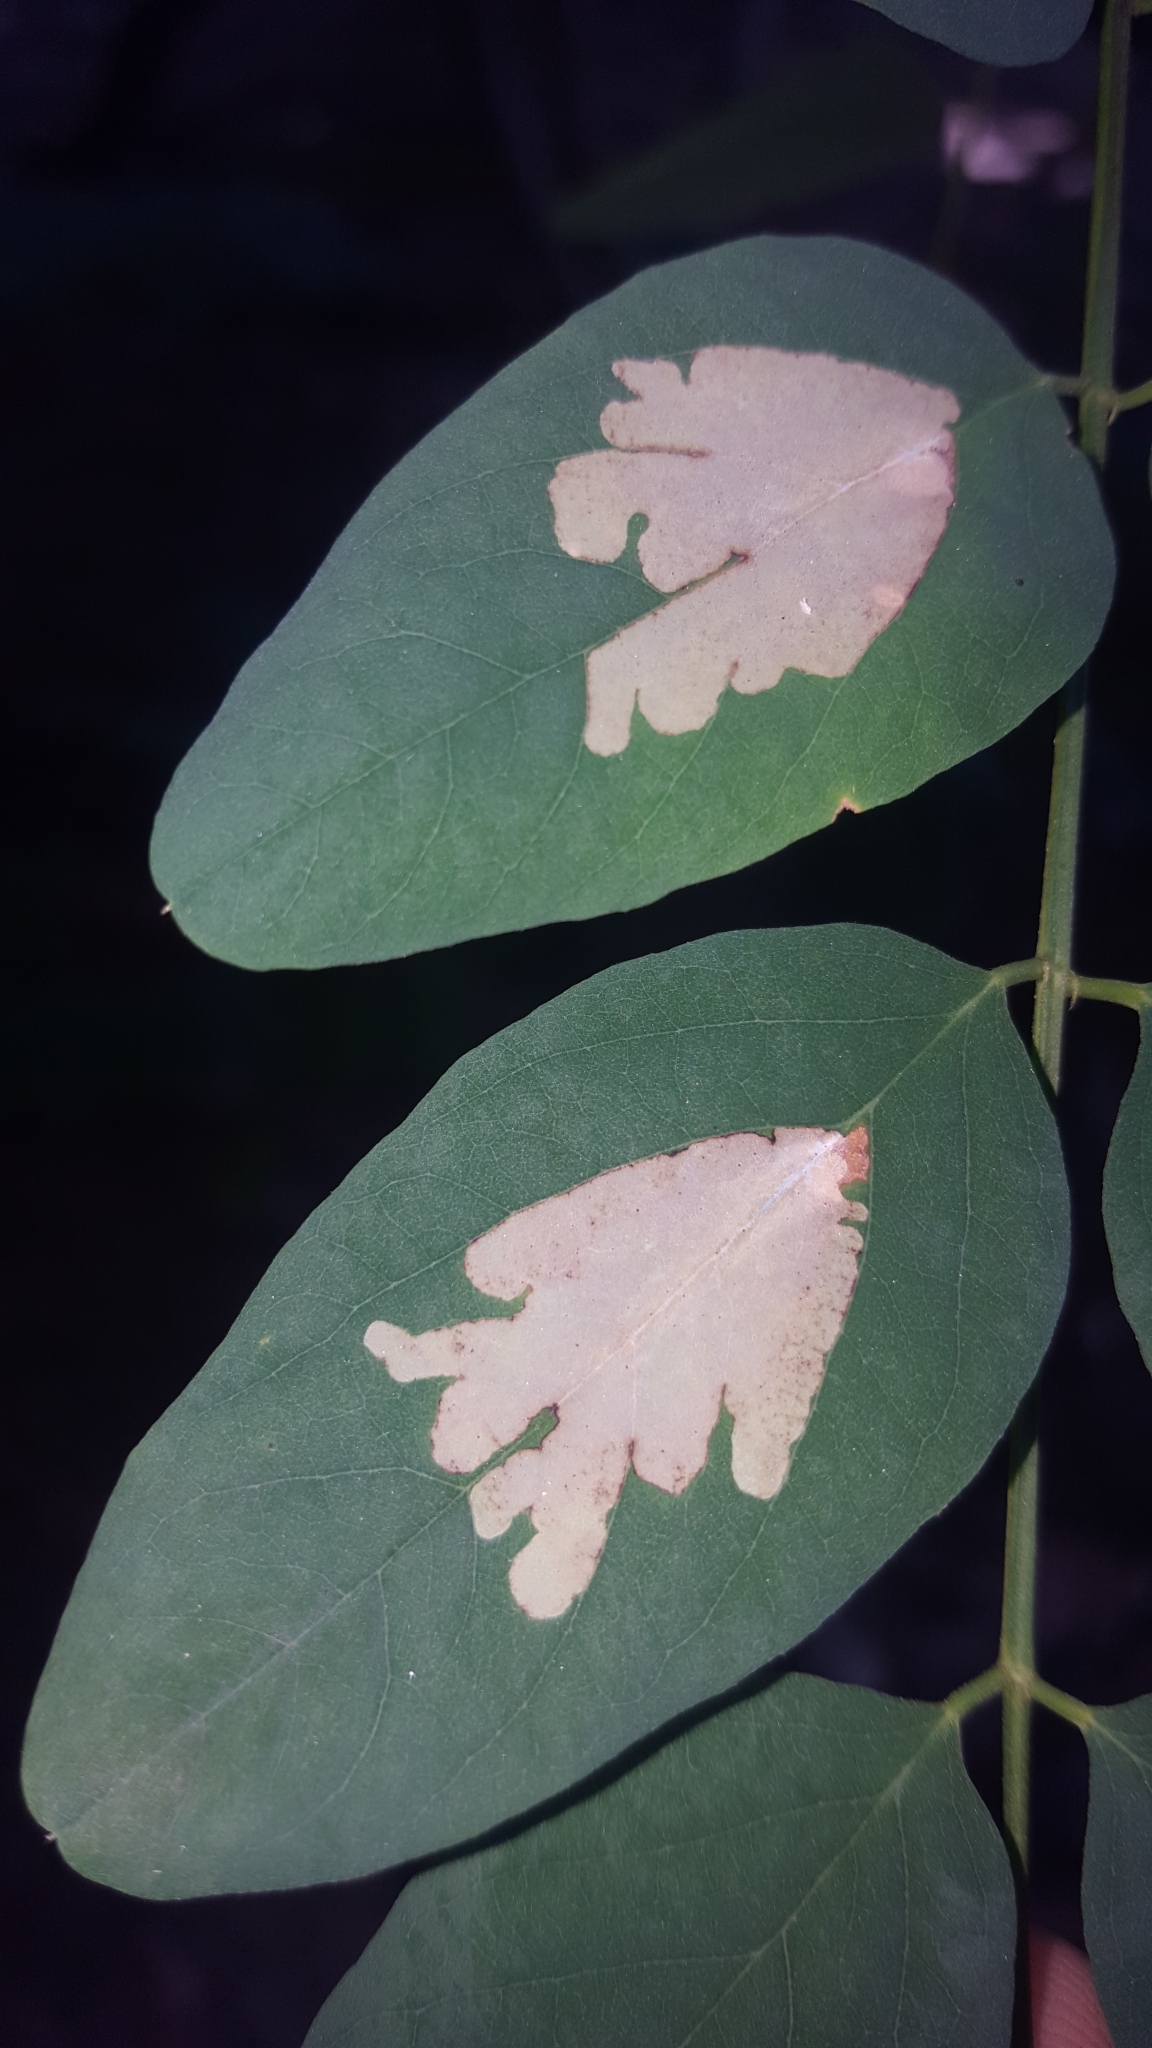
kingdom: Animalia
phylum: Arthropoda
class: Insecta
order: Lepidoptera
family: Gracillariidae
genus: Parectopa
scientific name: Parectopa robiniella
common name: Locust digitate leafminer
